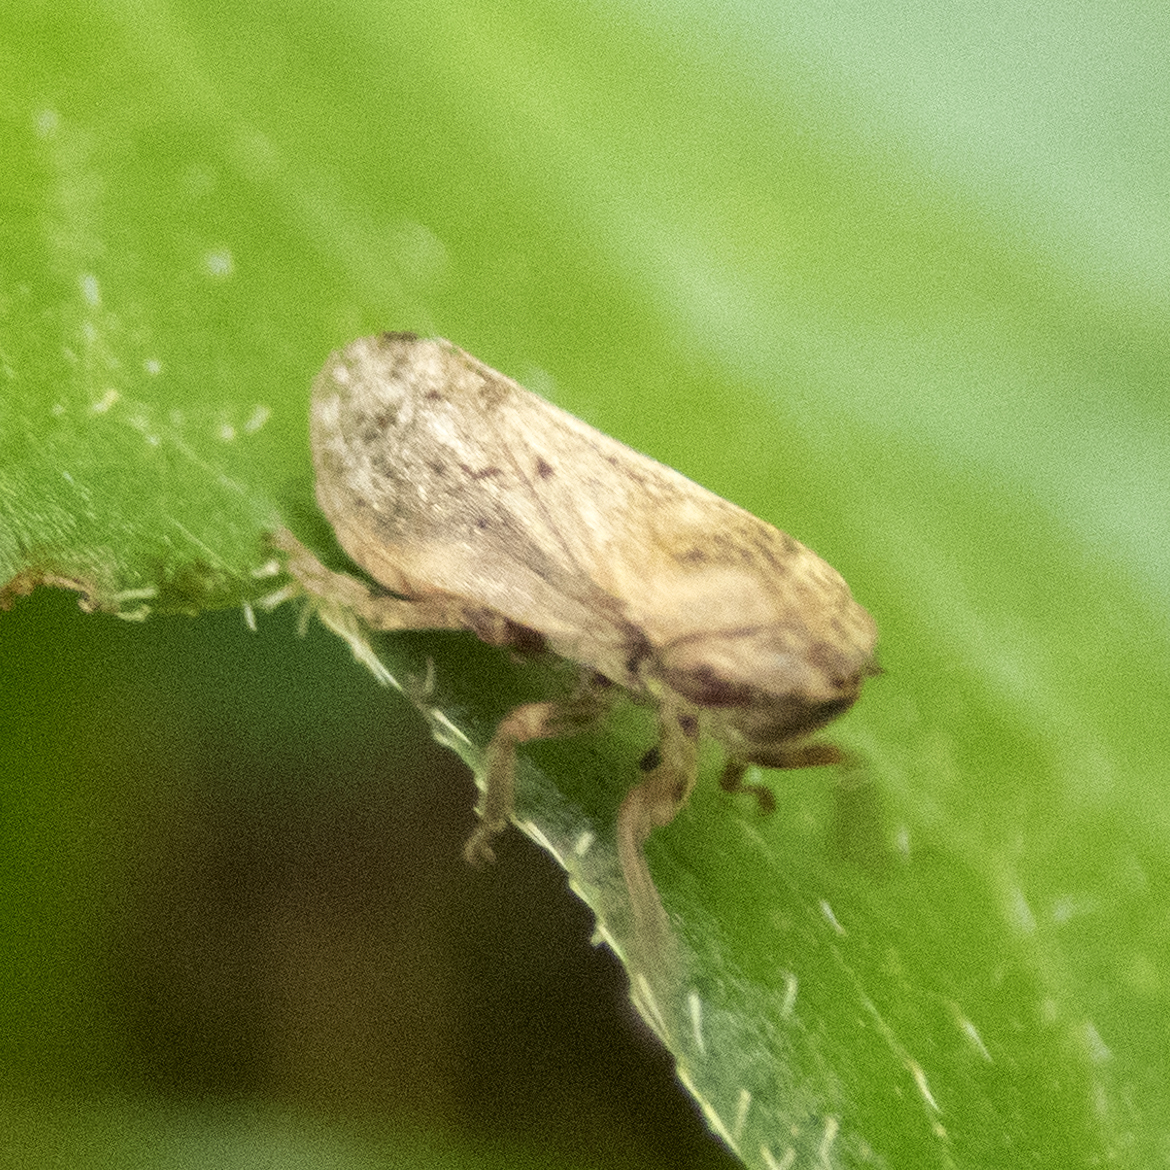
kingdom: Animalia
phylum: Arthropoda
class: Insecta
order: Hemiptera
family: Aphrophoridae
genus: Philaenus
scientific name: Philaenus spumarius
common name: Meadow spittlebug
